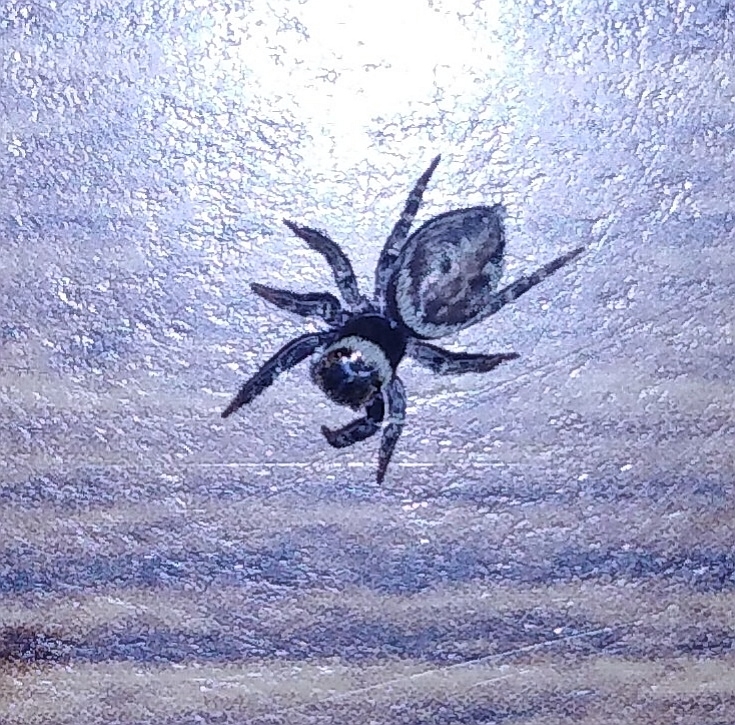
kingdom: Animalia
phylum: Arthropoda
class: Arachnida
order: Araneae
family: Salticidae
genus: Hasarius
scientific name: Hasarius adansoni
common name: Jumping spider
